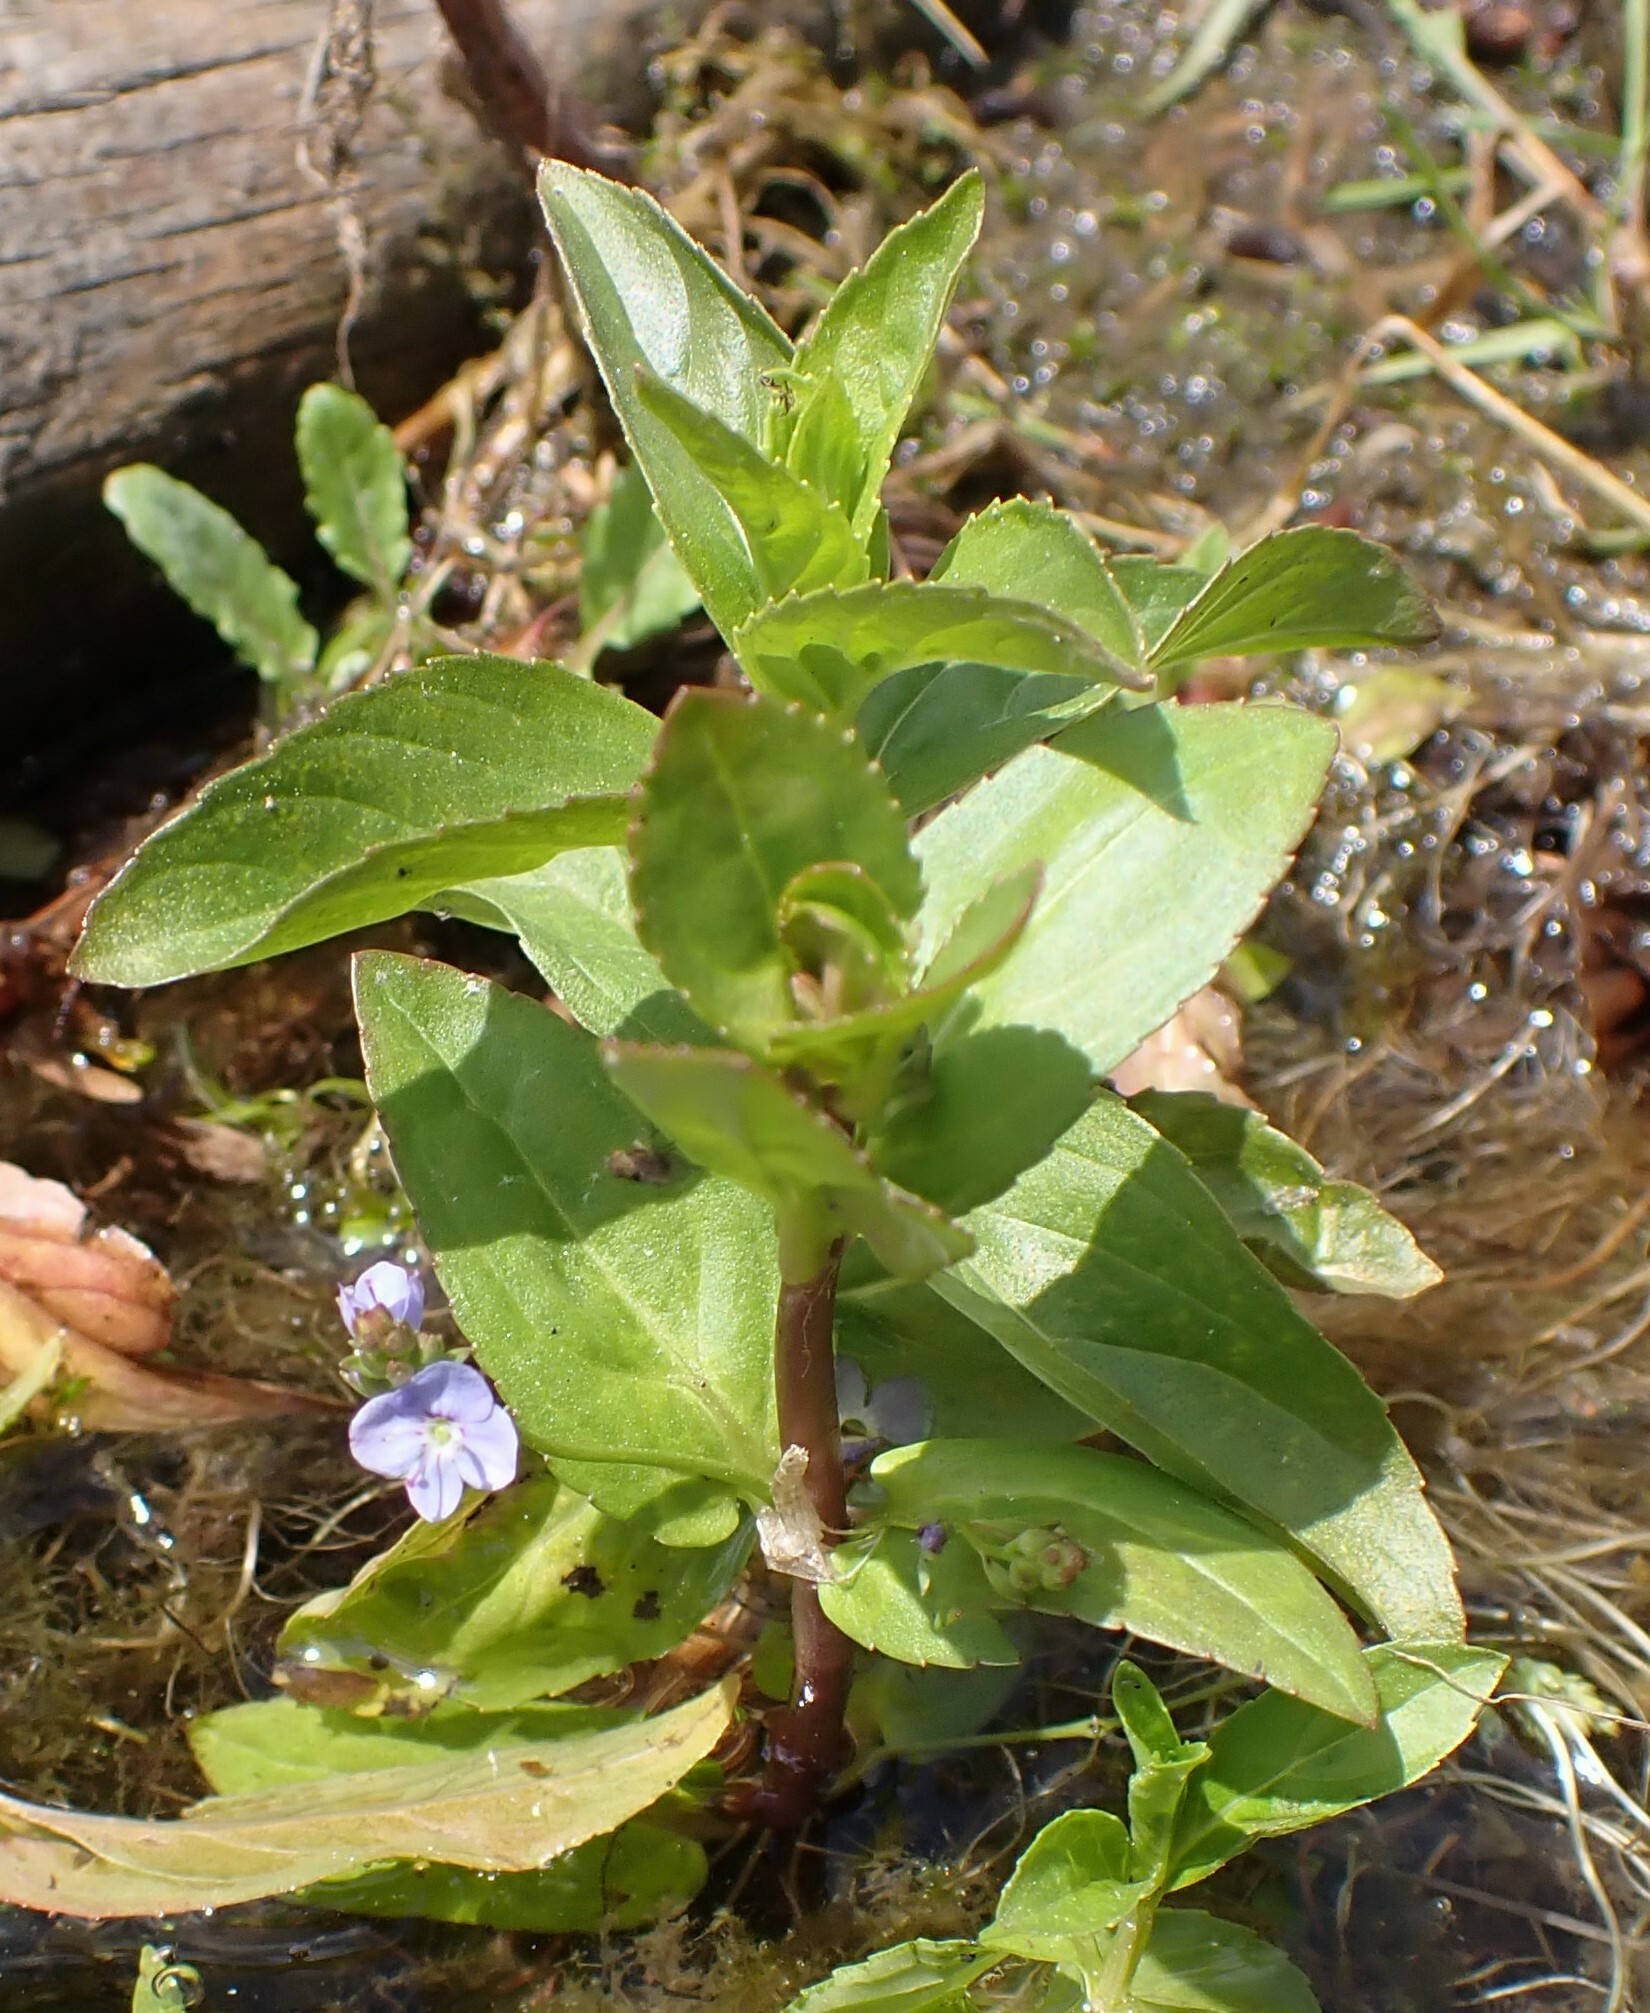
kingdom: Plantae
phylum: Tracheophyta
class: Magnoliopsida
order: Lamiales
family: Plantaginaceae
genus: Veronica
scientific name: Veronica americana
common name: American brooklime
